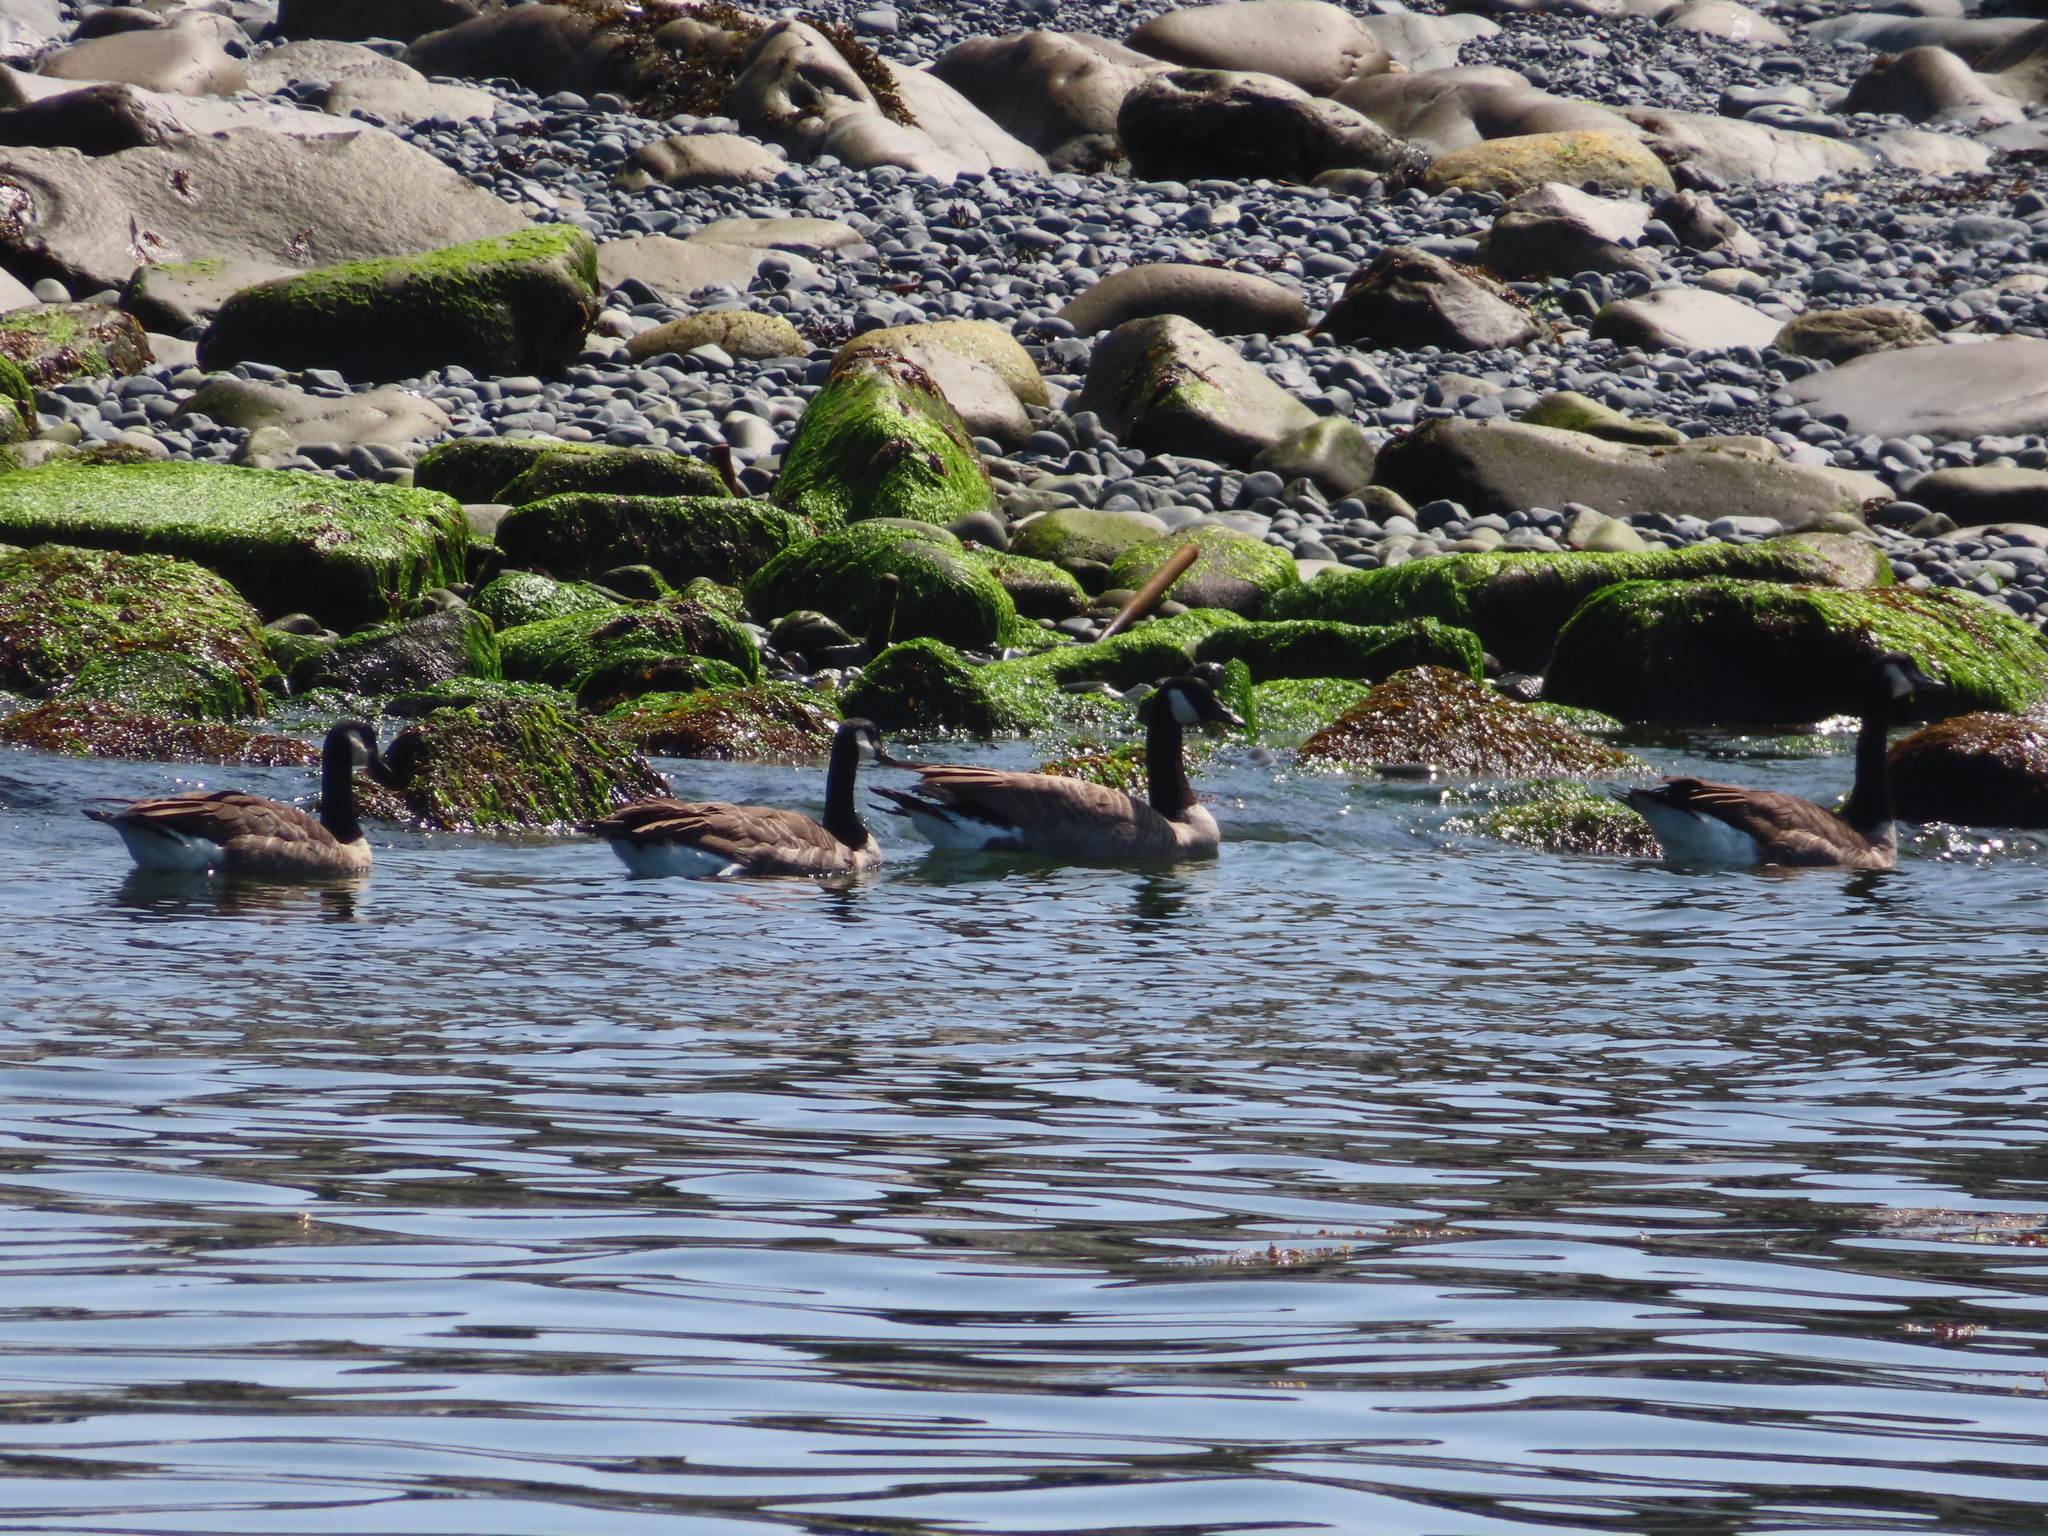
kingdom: Animalia
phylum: Chordata
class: Aves
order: Anseriformes
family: Anatidae
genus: Branta
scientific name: Branta canadensis
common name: Canada goose
